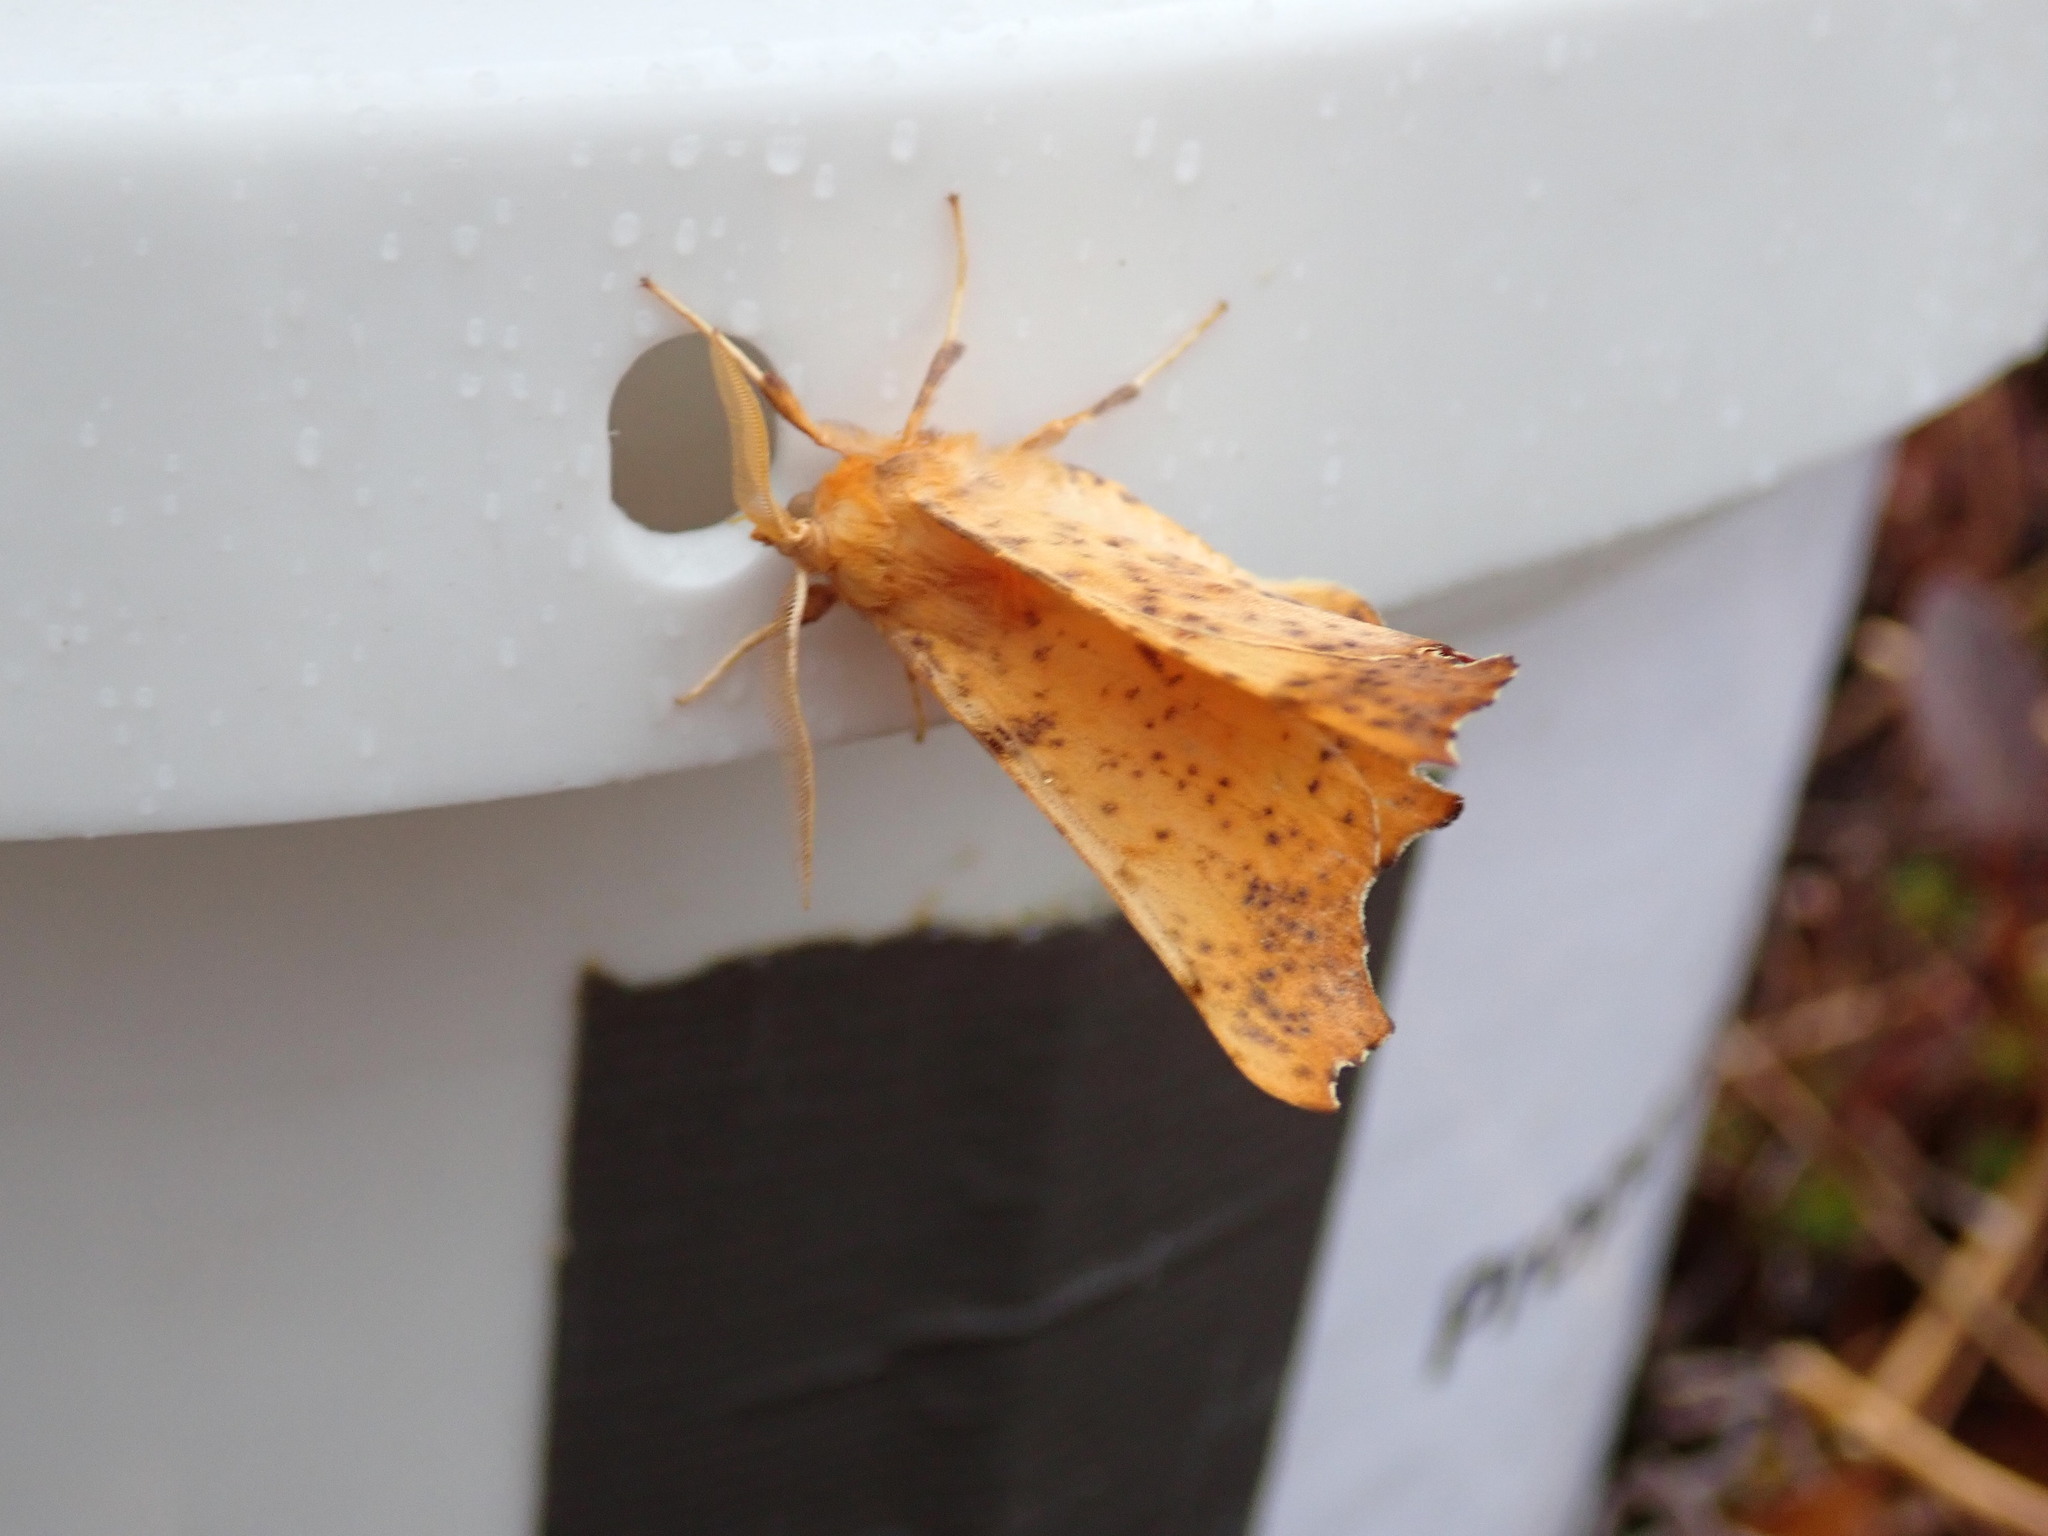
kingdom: Animalia
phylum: Arthropoda
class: Insecta
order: Lepidoptera
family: Geometridae
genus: Ennomos
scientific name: Ennomos magnaria
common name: Maple spanworm
